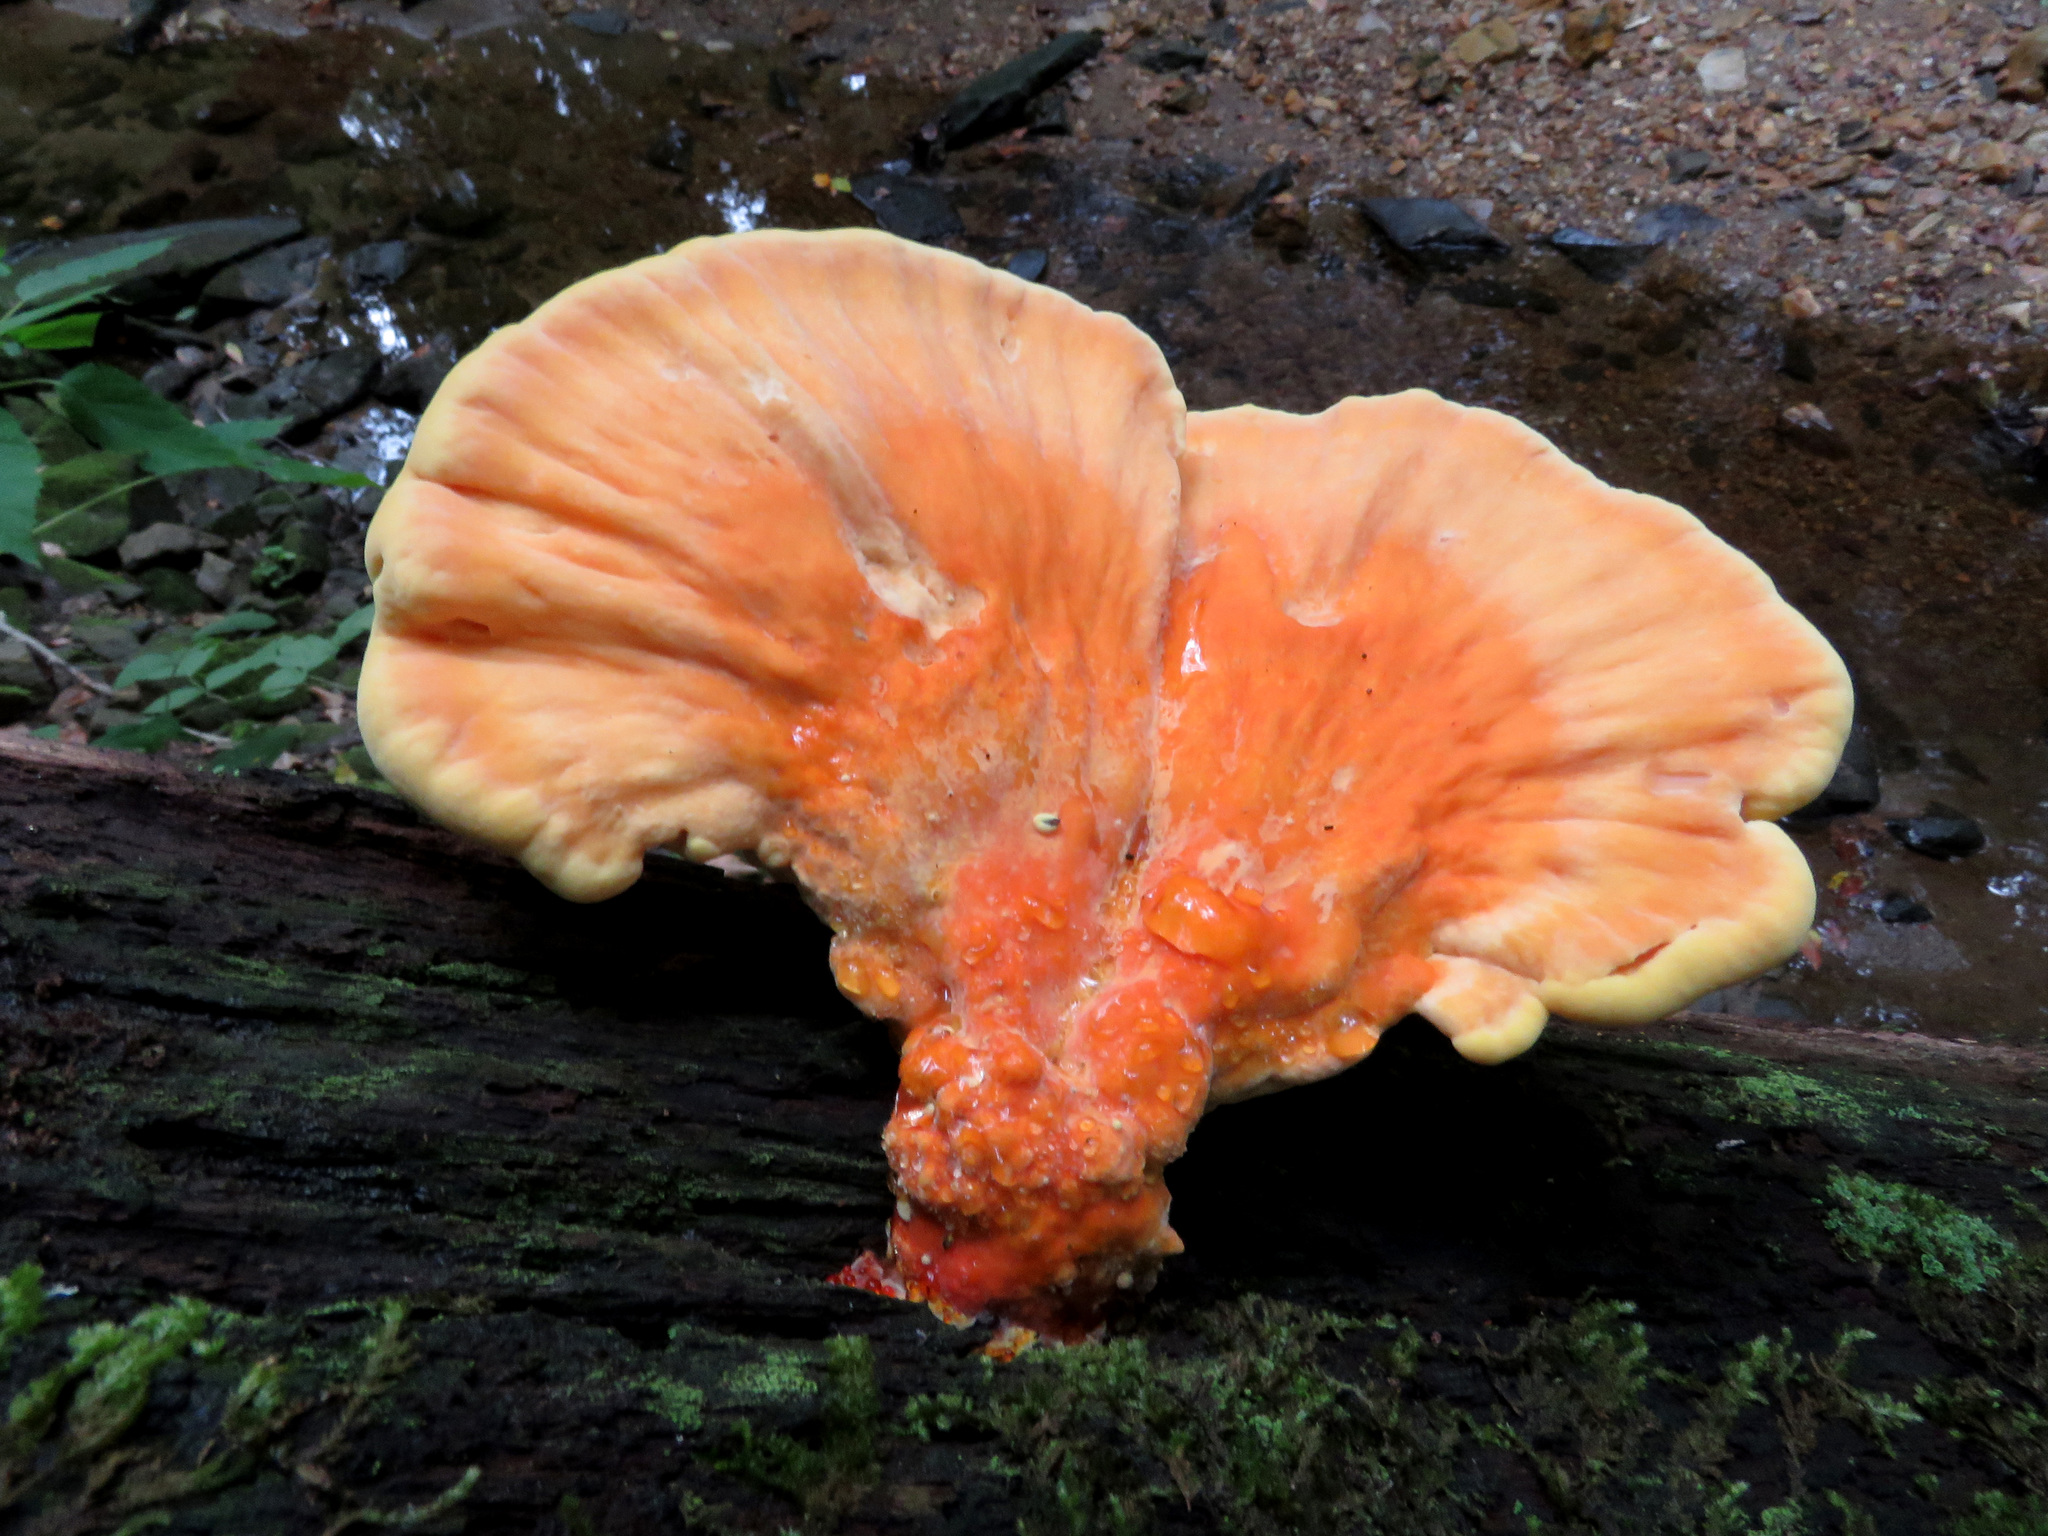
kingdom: Fungi
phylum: Basidiomycota
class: Agaricomycetes
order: Polyporales
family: Laetiporaceae
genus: Laetiporus
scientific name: Laetiporus sulphureus
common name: Chicken of the woods
